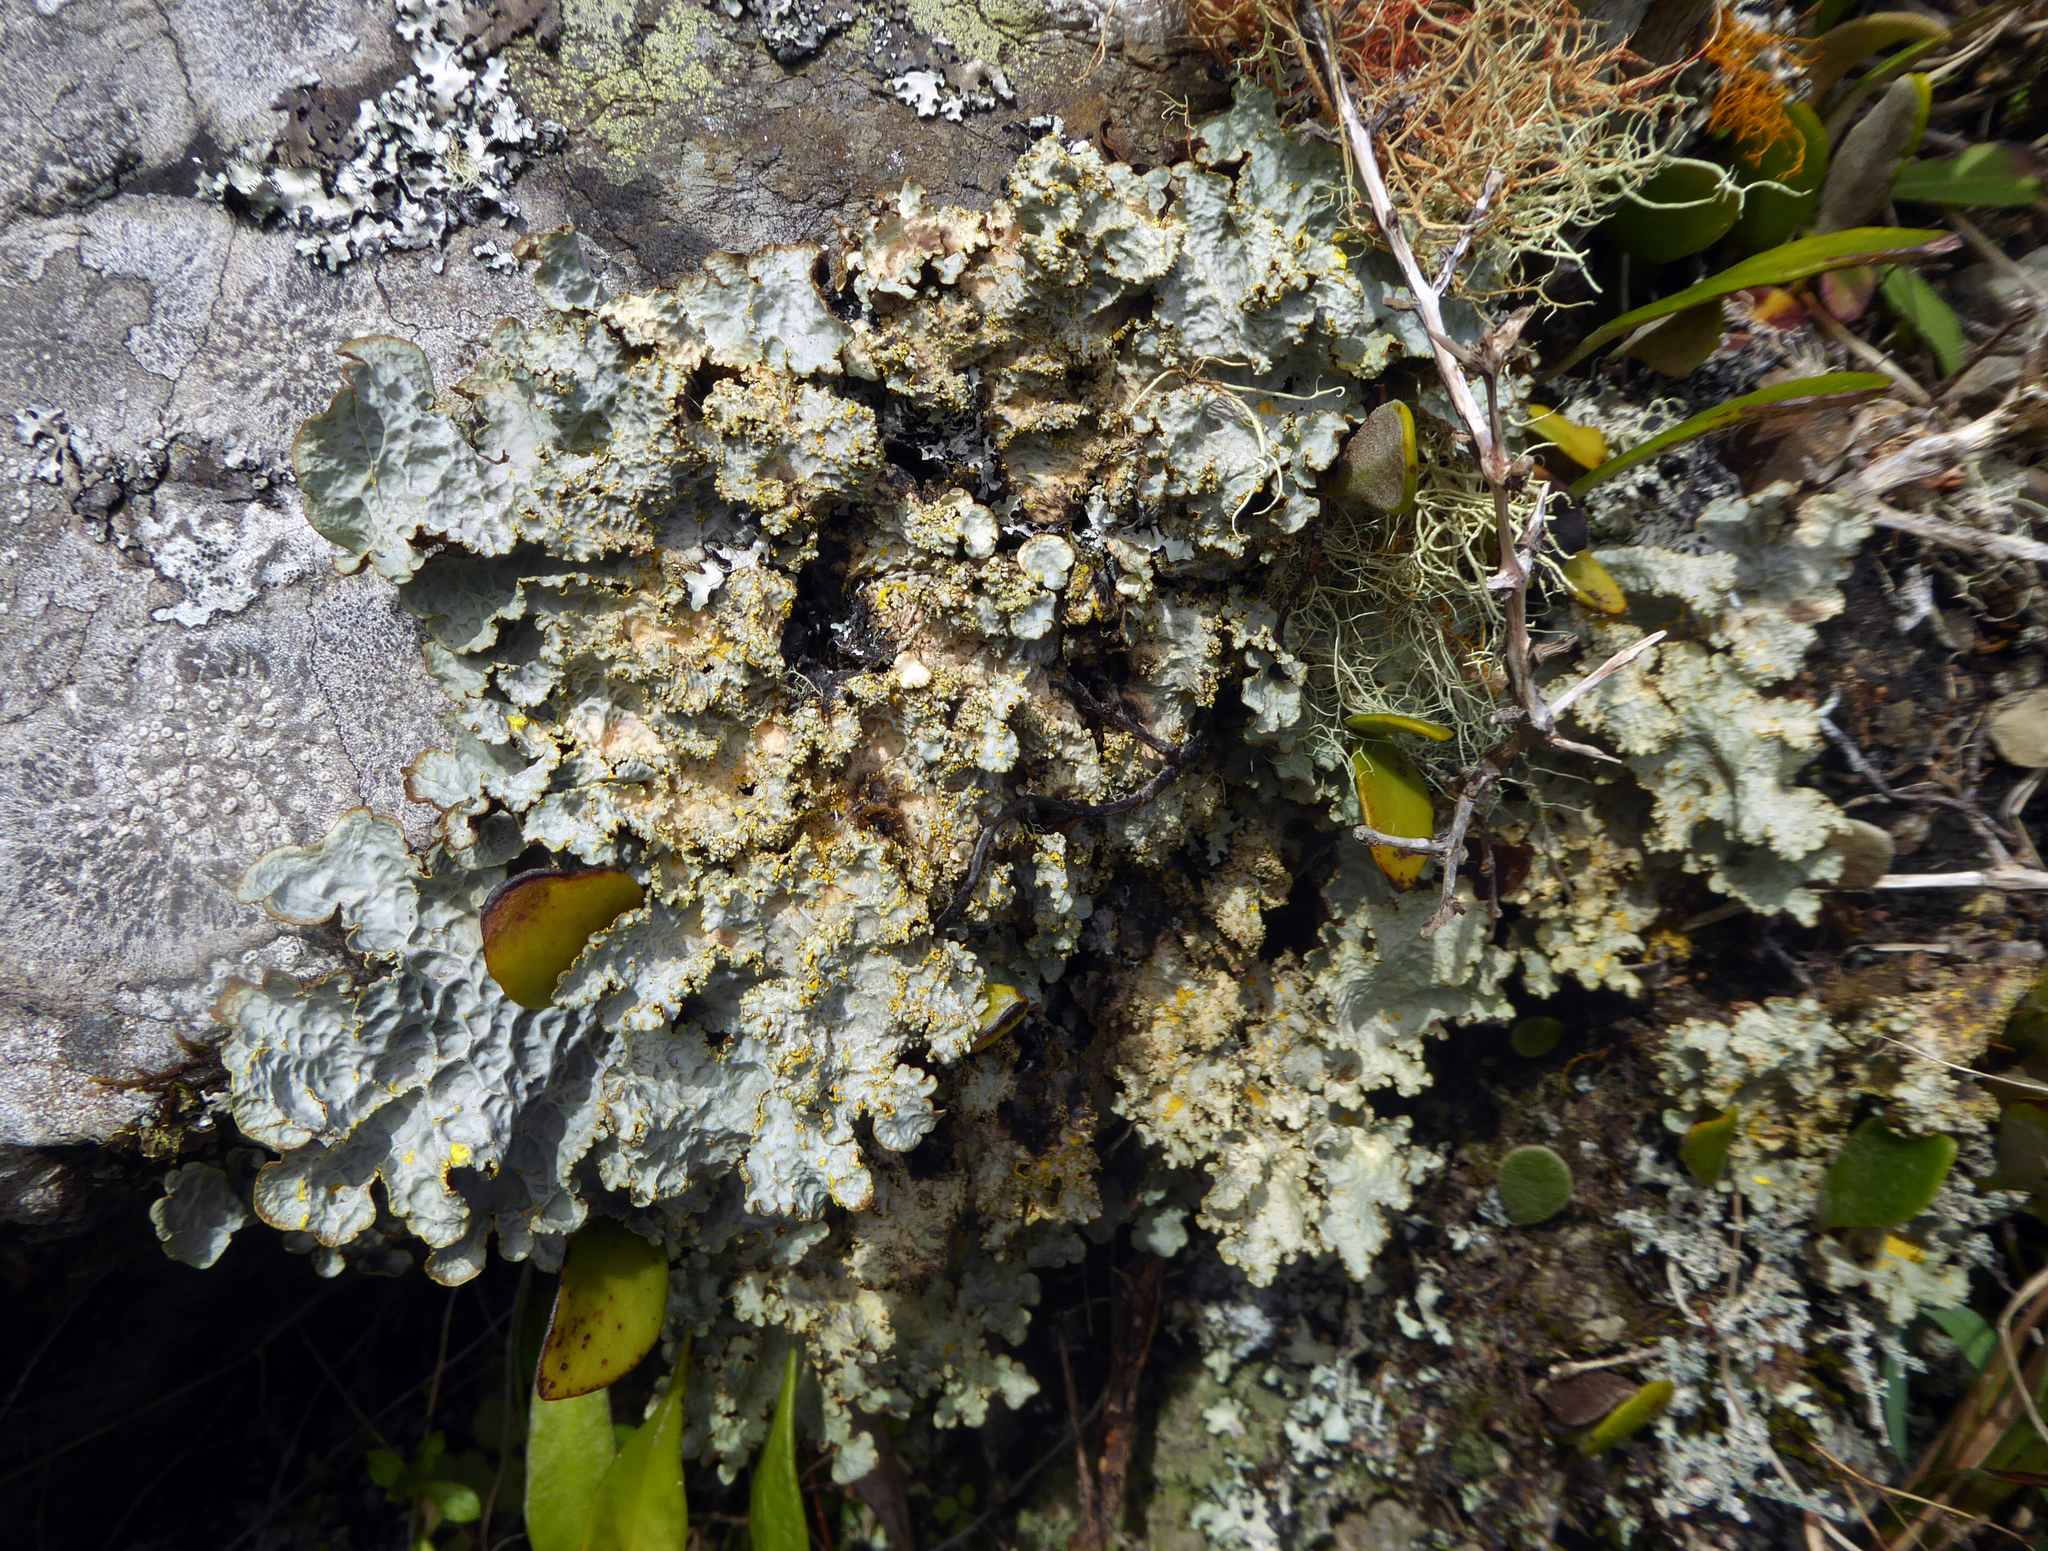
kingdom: Fungi
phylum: Ascomycota
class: Lecanoromycetes
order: Peltigerales
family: Lobariaceae
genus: Yarrumia
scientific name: Yarrumia colensoi
